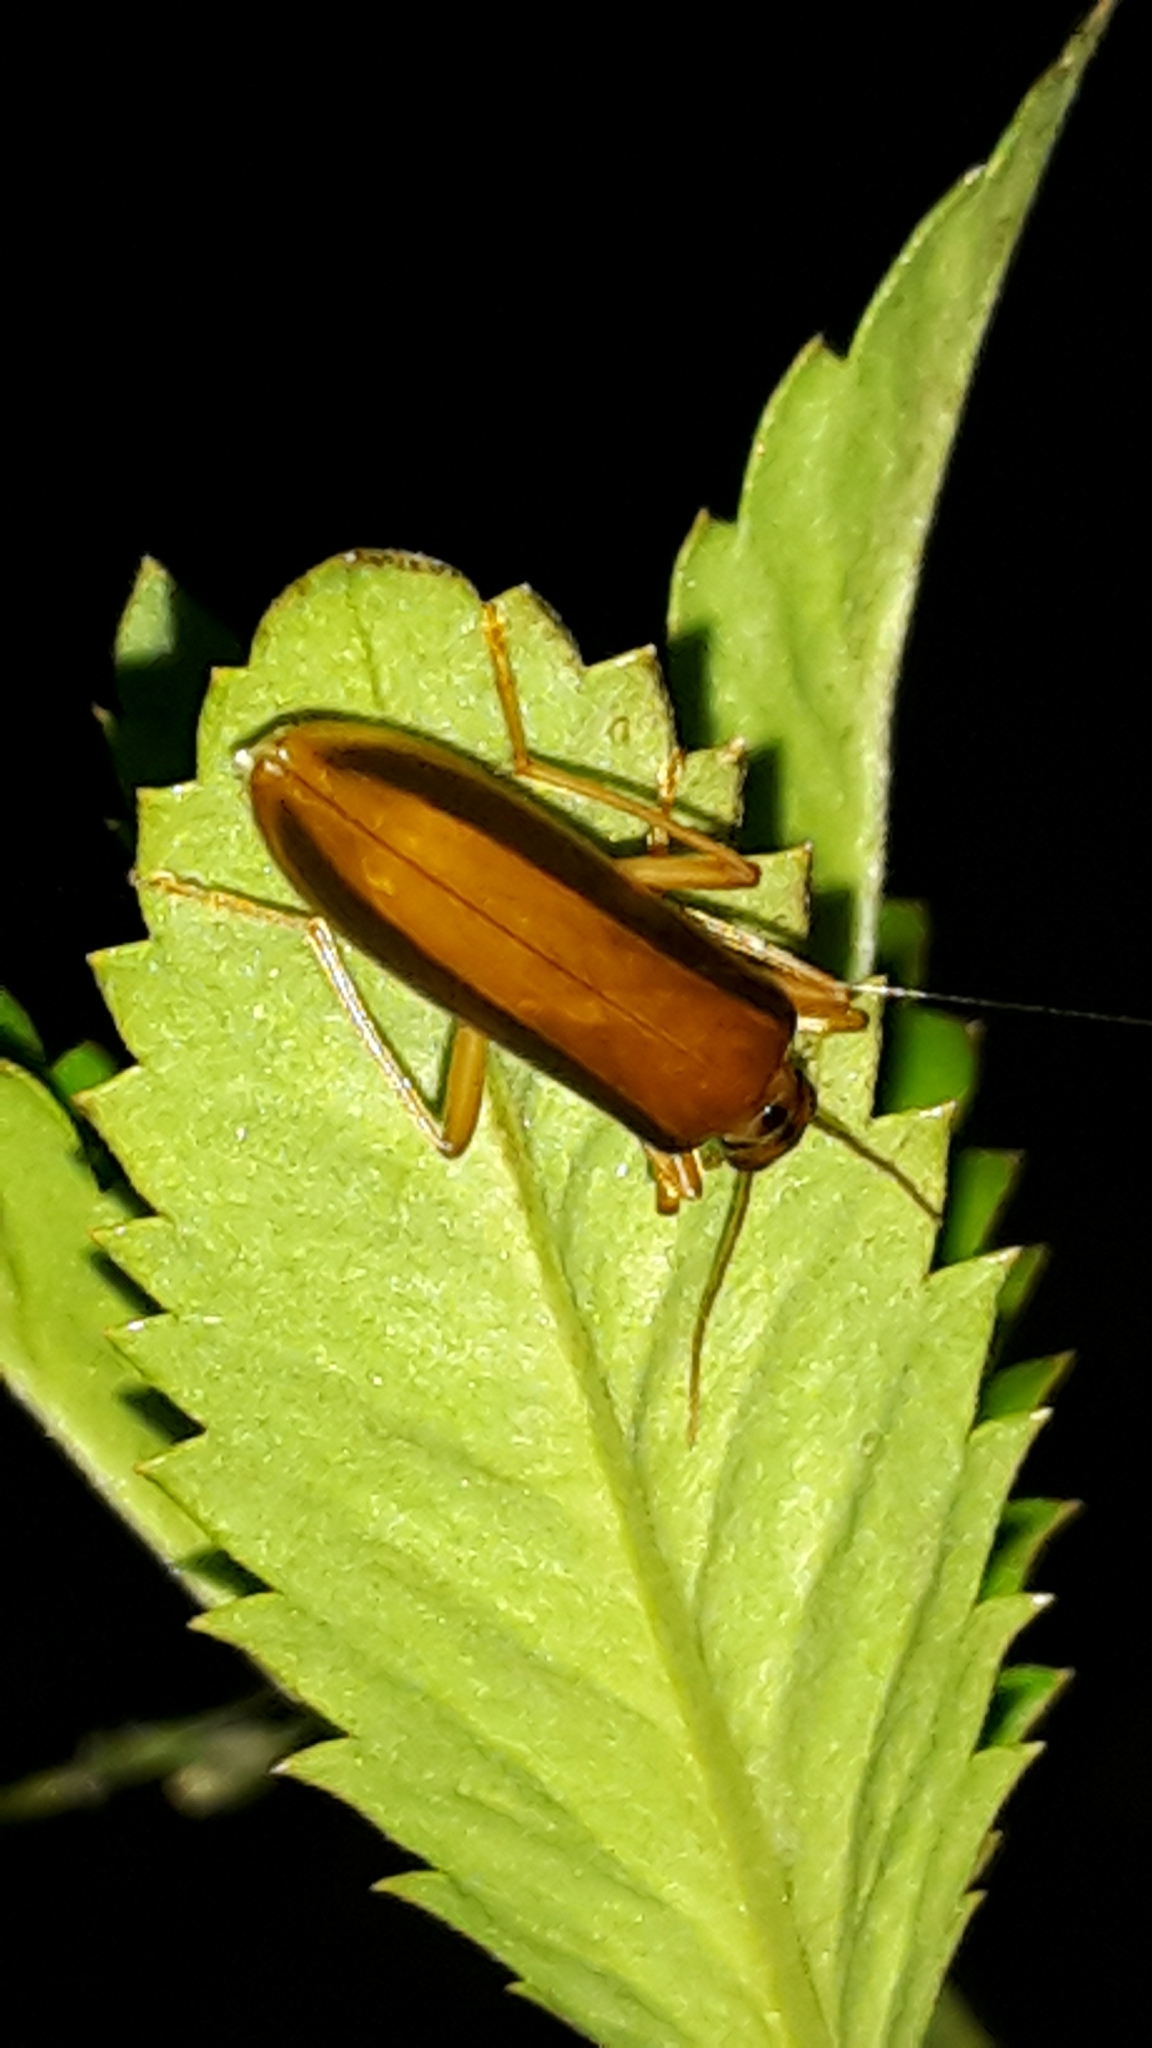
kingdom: Animalia
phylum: Arthropoda
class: Insecta
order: Coleoptera
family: Oedemeridae
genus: Thelyphassa
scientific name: Thelyphassa
